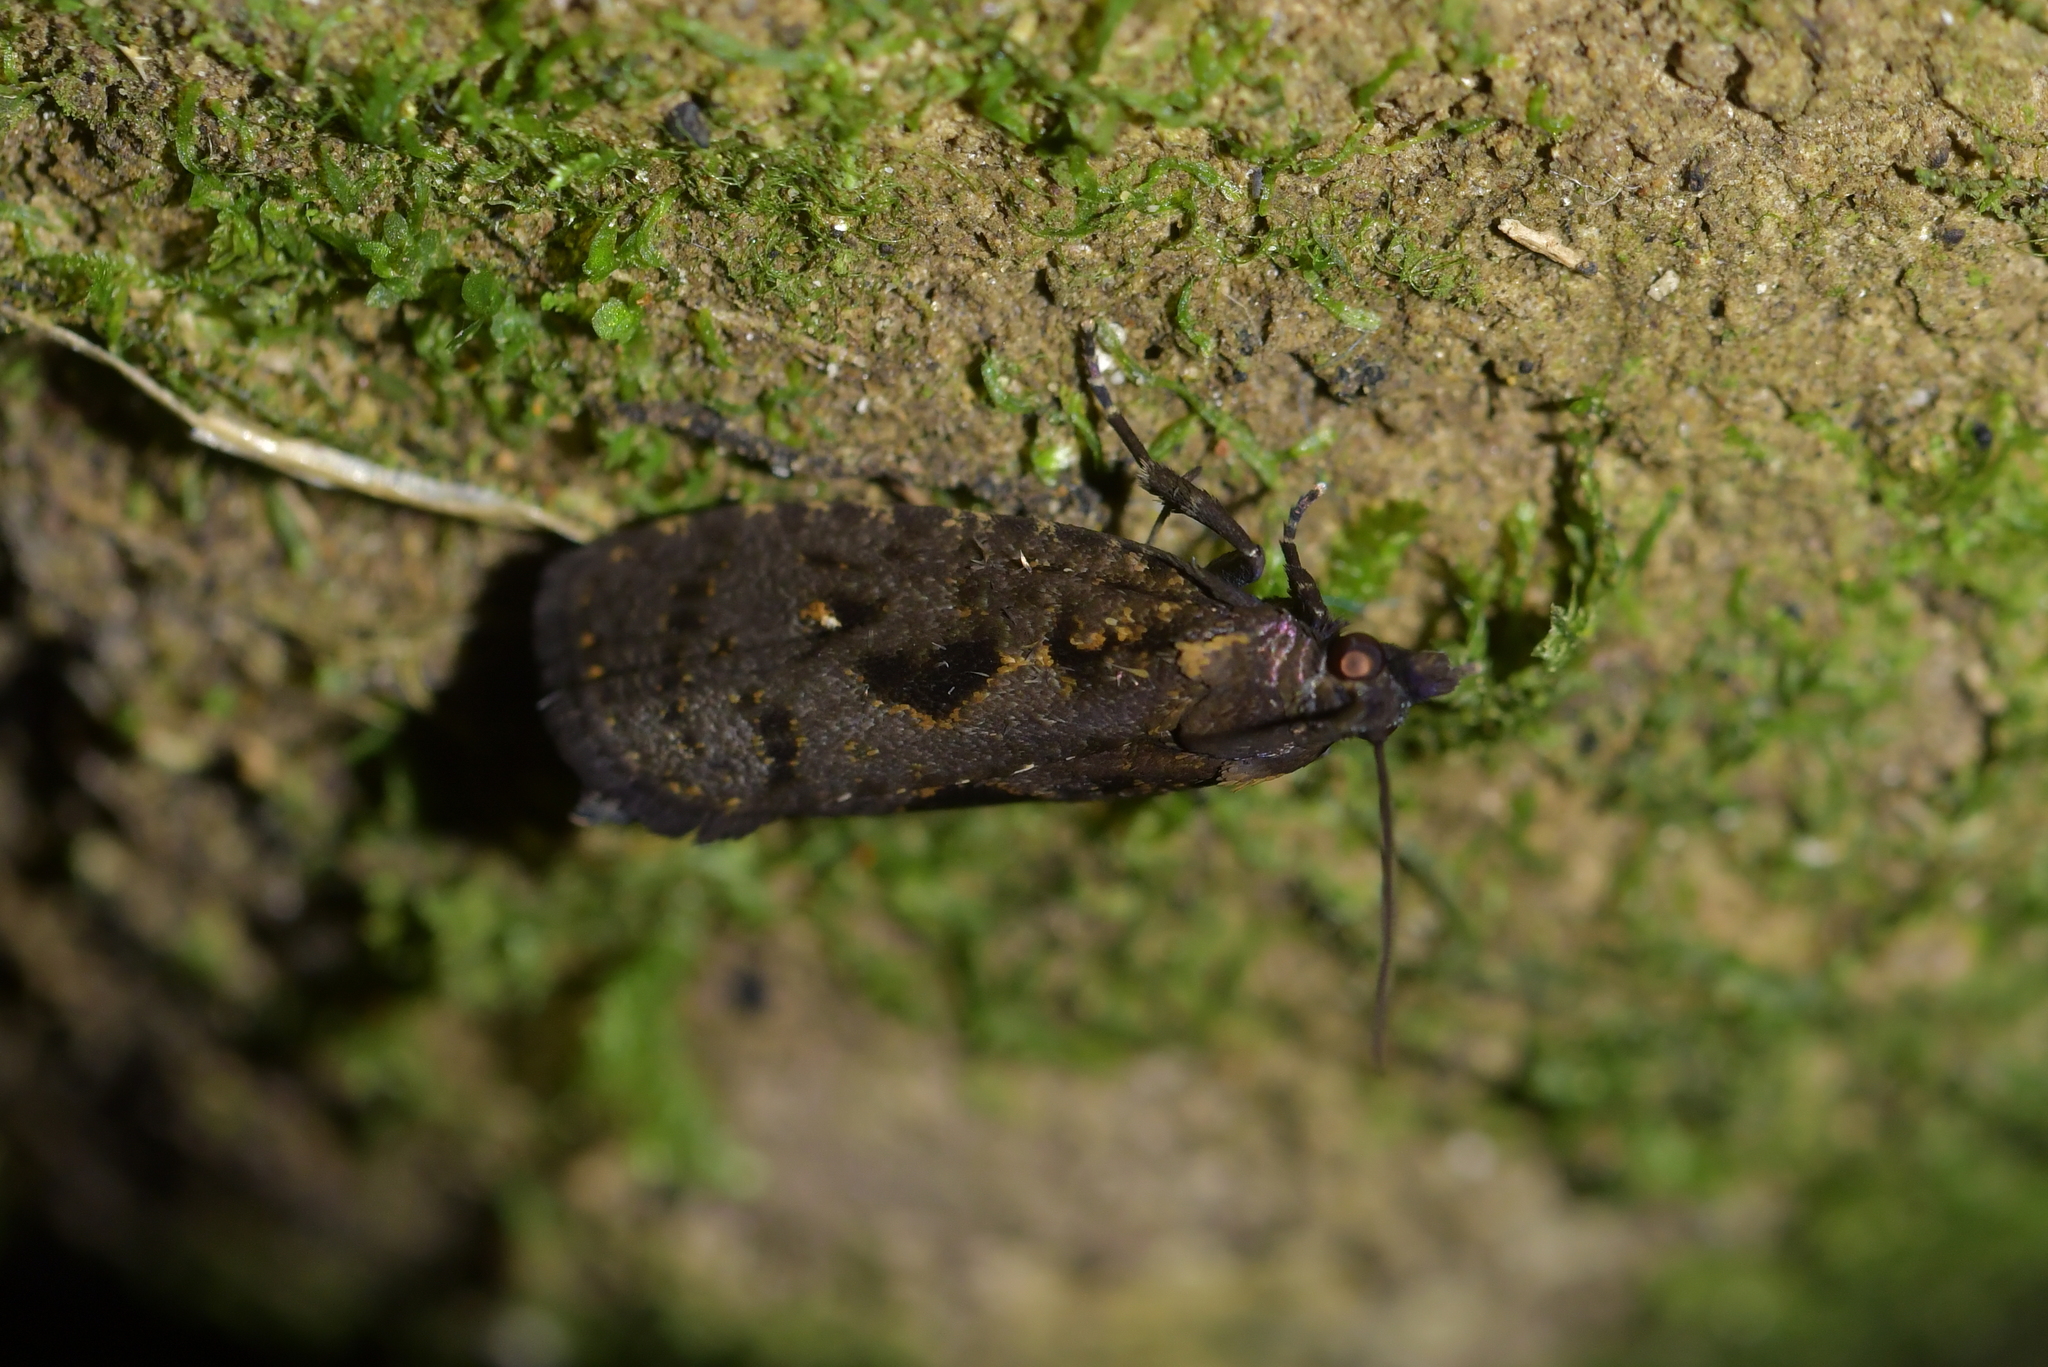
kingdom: Animalia
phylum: Arthropoda
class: Insecta
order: Lepidoptera
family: Tortricidae
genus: Cryptaspasma
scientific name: Cryptaspasma querula
